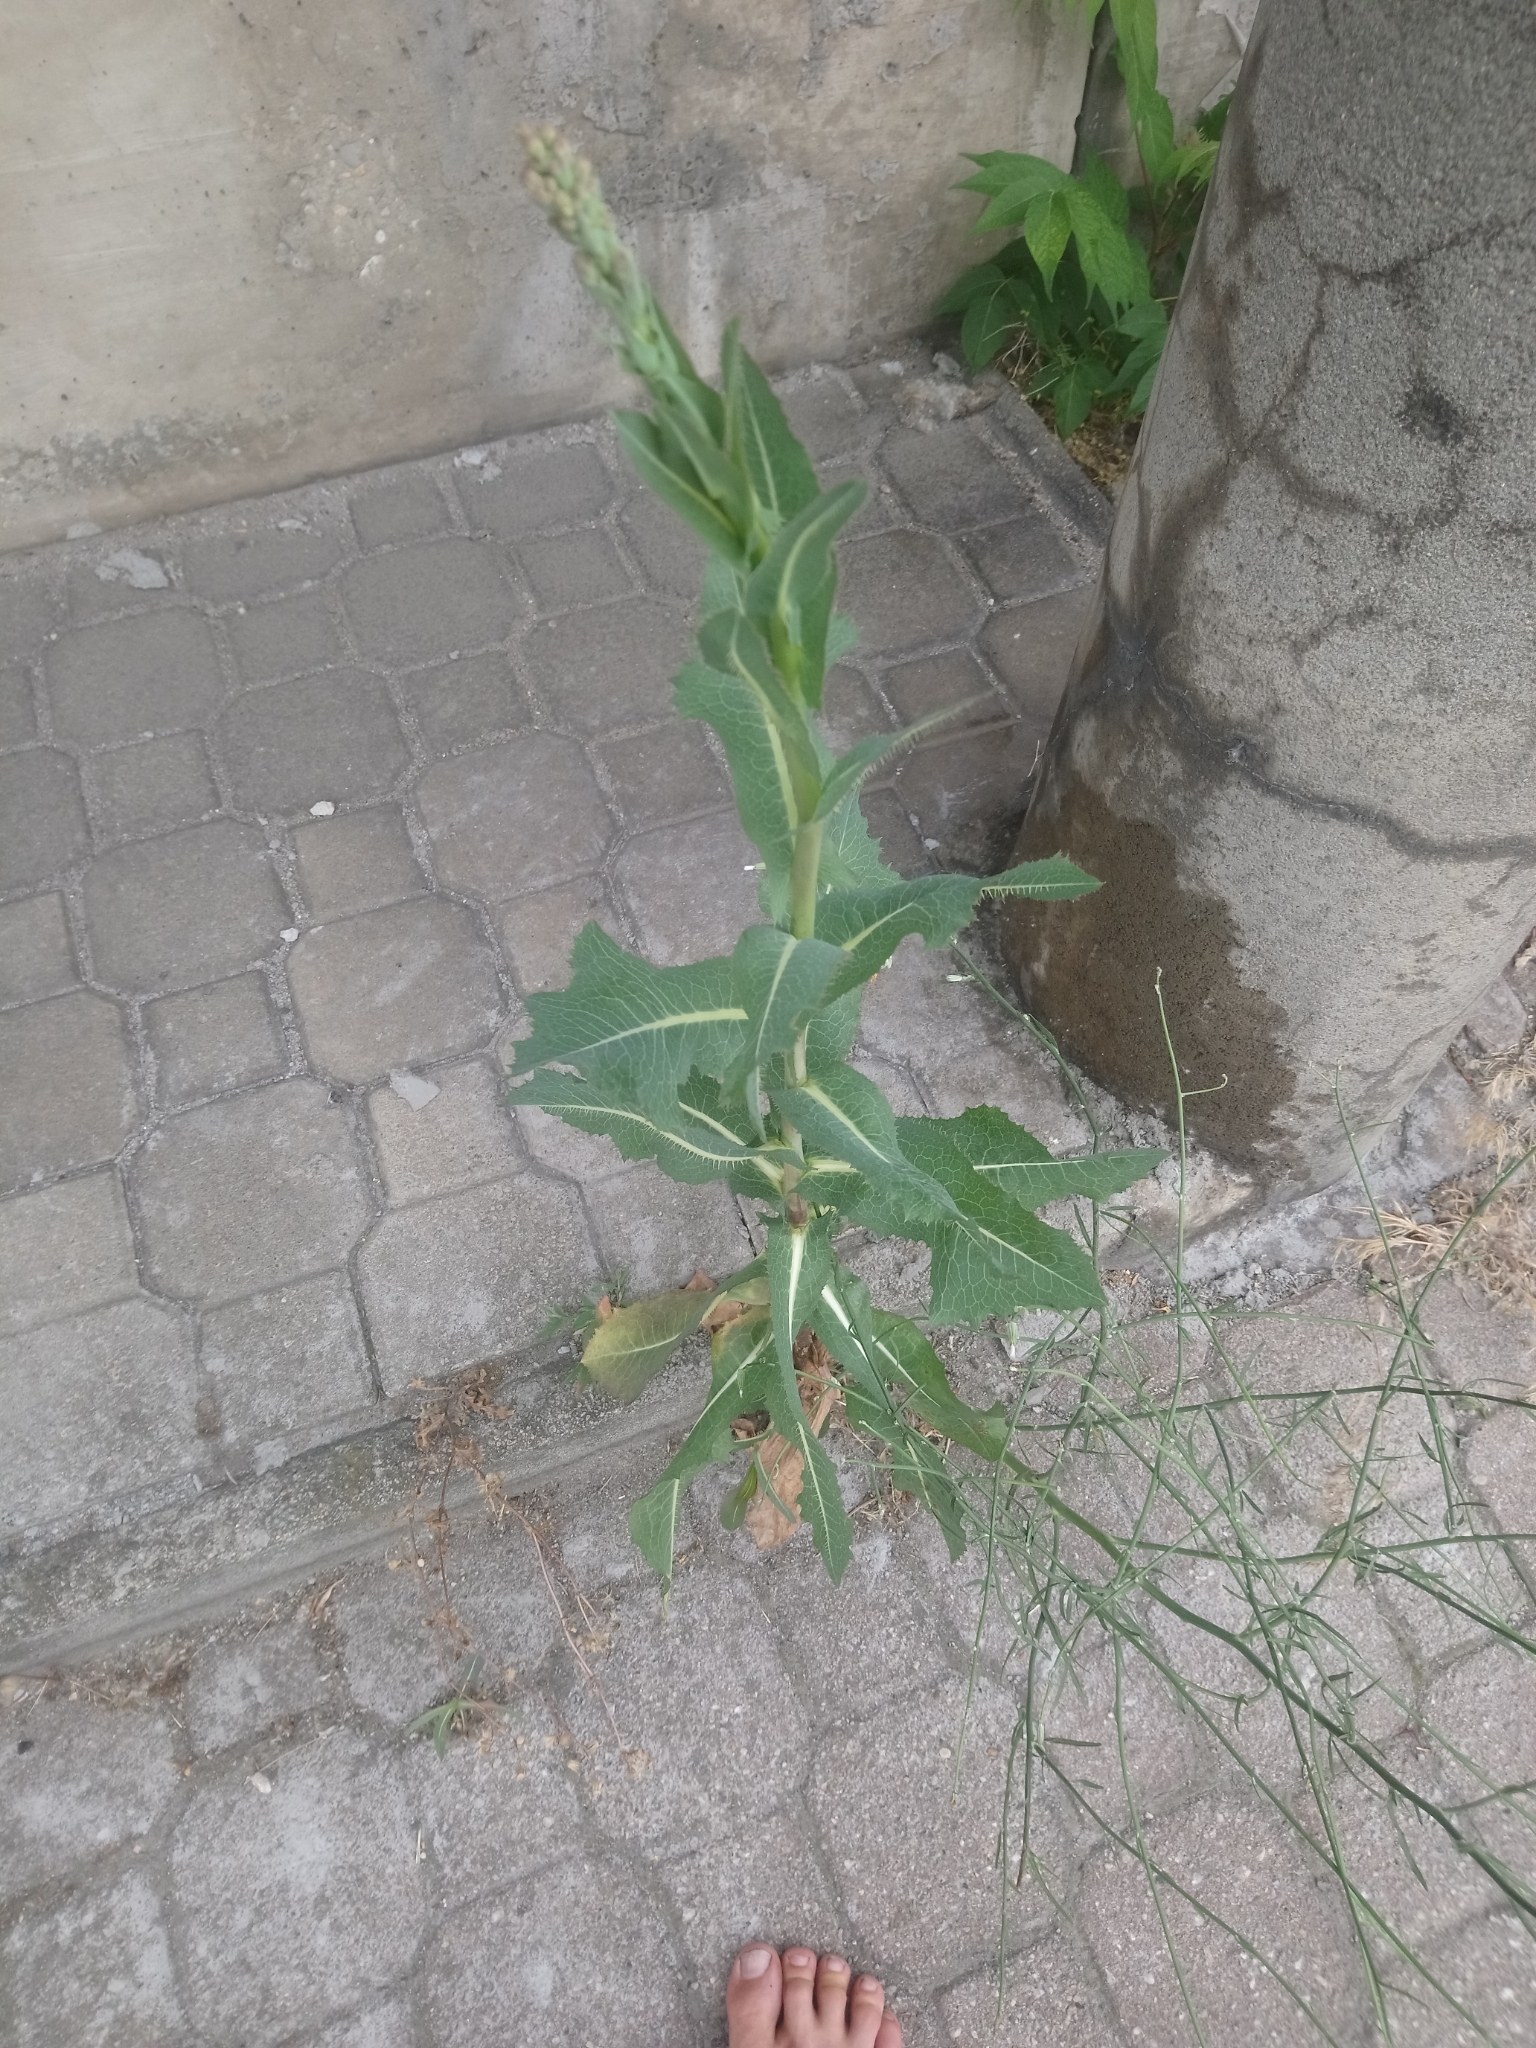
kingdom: Plantae
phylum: Tracheophyta
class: Magnoliopsida
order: Asterales
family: Asteraceae
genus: Lactuca
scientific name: Lactuca serriola
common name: Prickly lettuce
